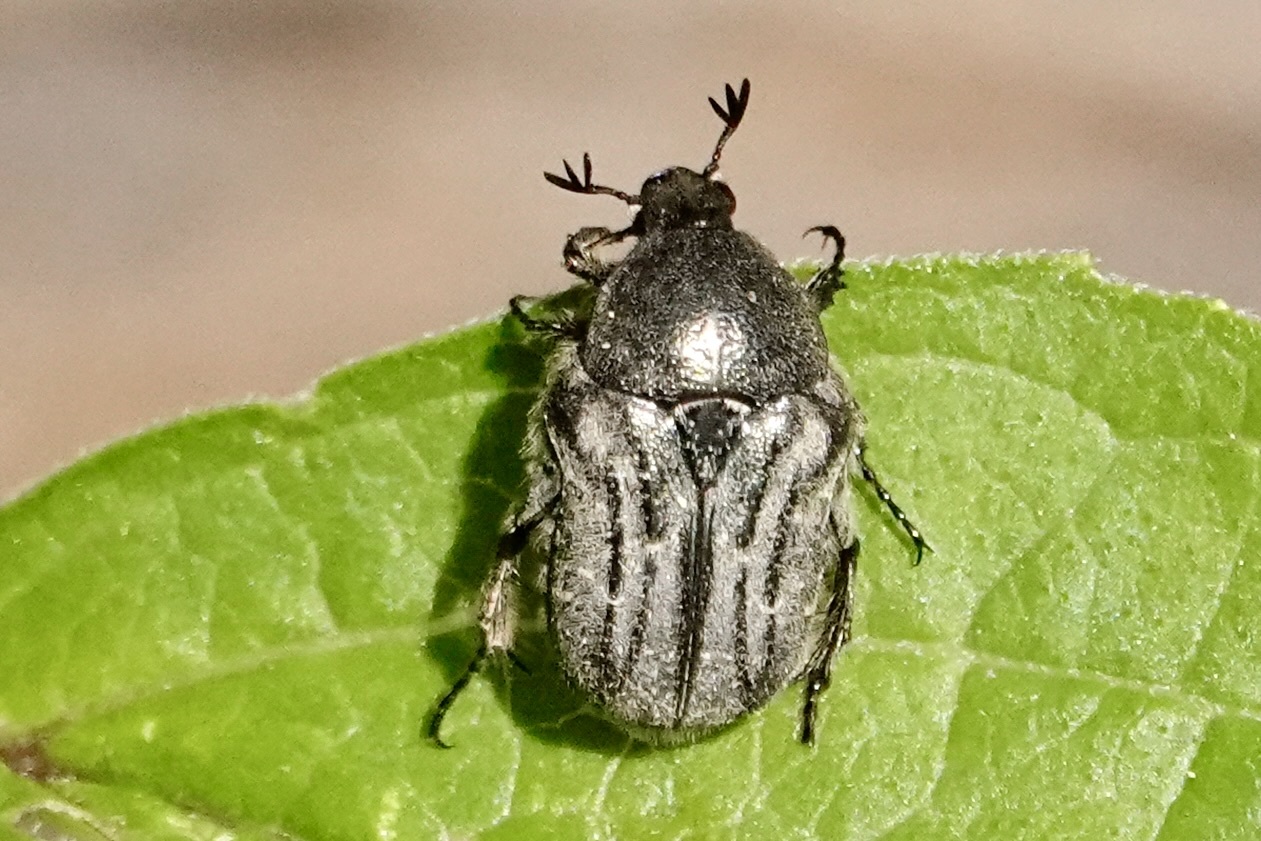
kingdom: Animalia
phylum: Arthropoda
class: Insecta
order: Coleoptera
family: Scarabaeidae
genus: Euphoria
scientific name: Euphoria sepulcralis
